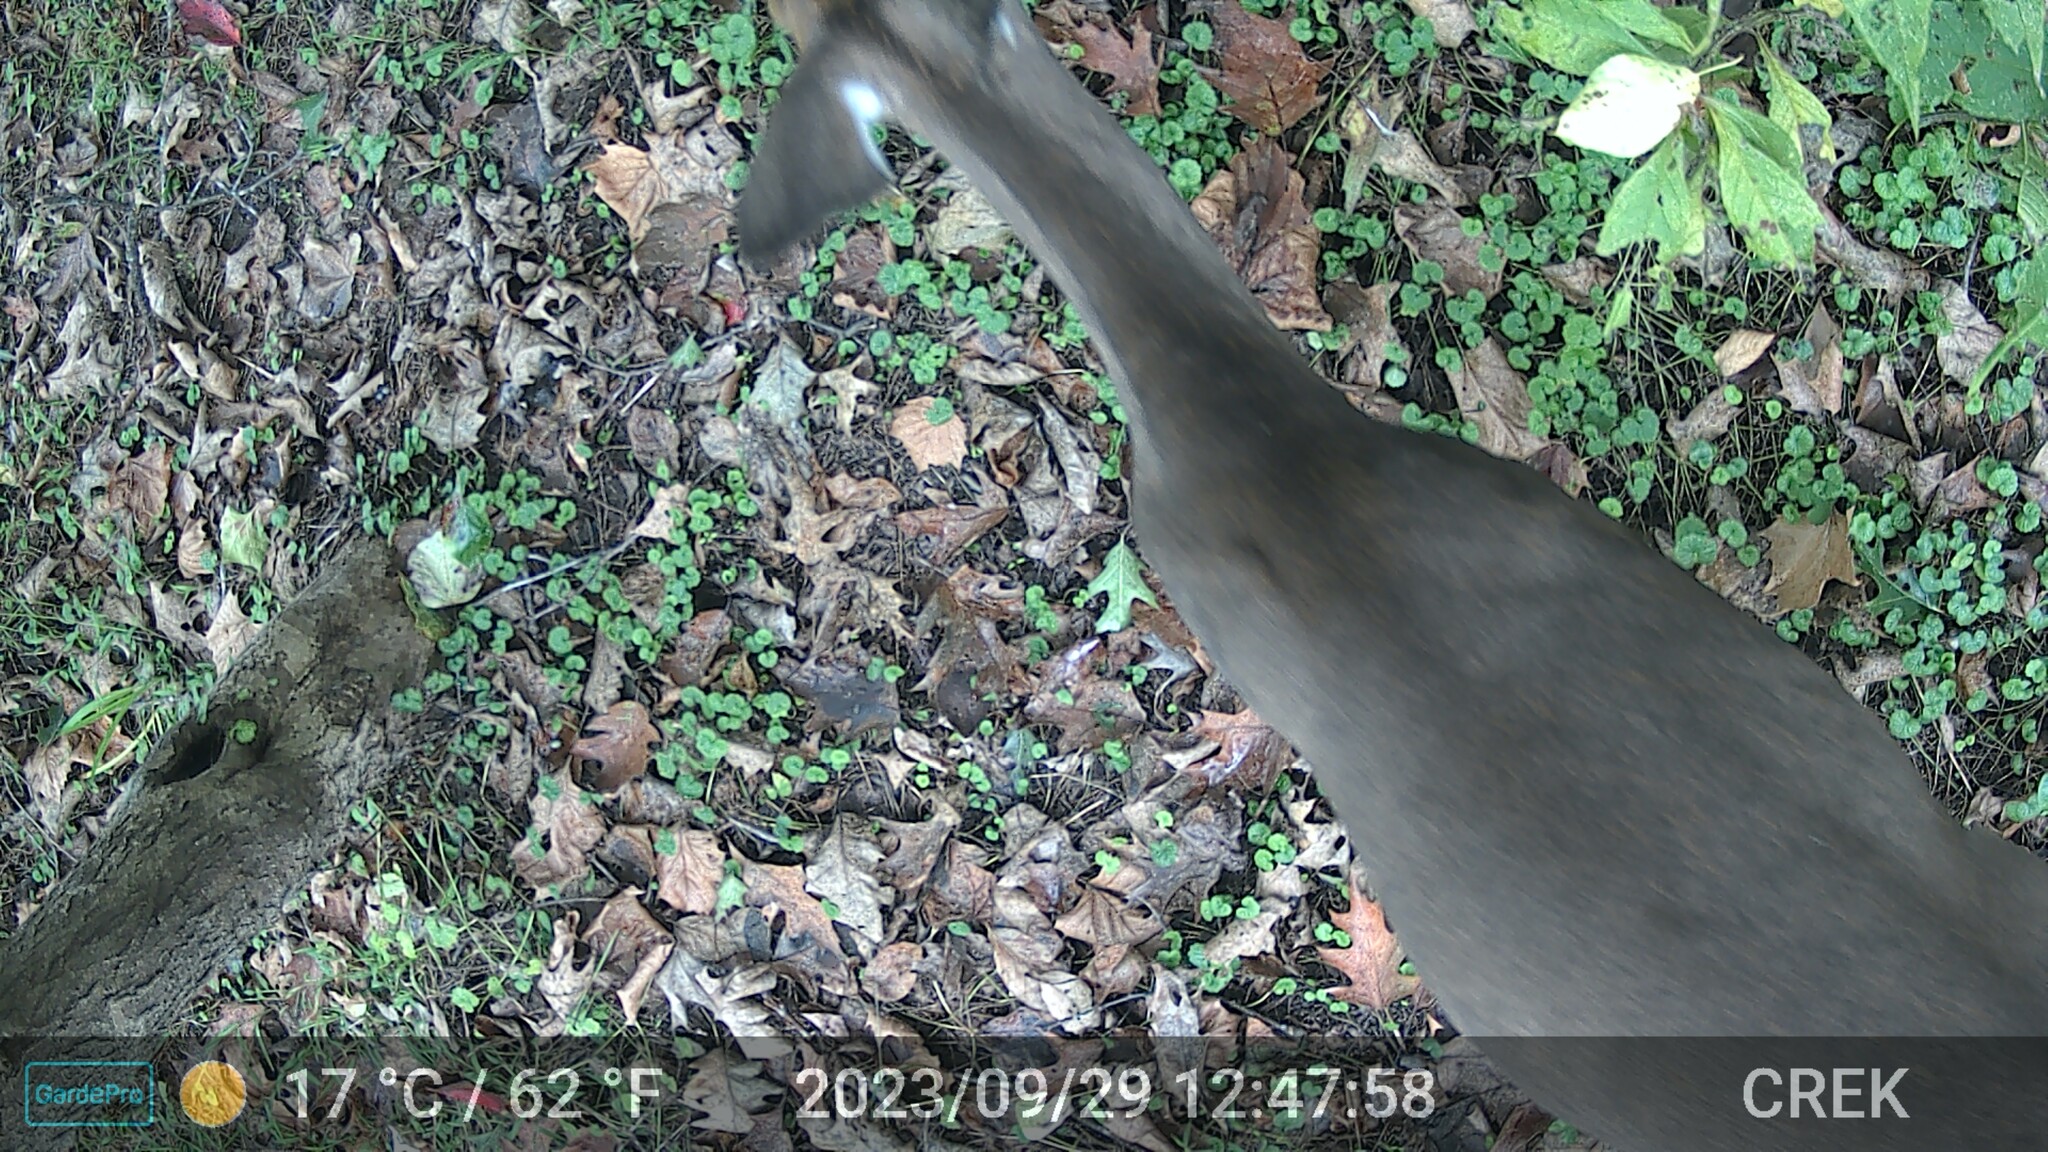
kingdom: Animalia
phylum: Chordata
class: Mammalia
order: Artiodactyla
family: Cervidae
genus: Odocoileus
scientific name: Odocoileus virginianus
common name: White-tailed deer
